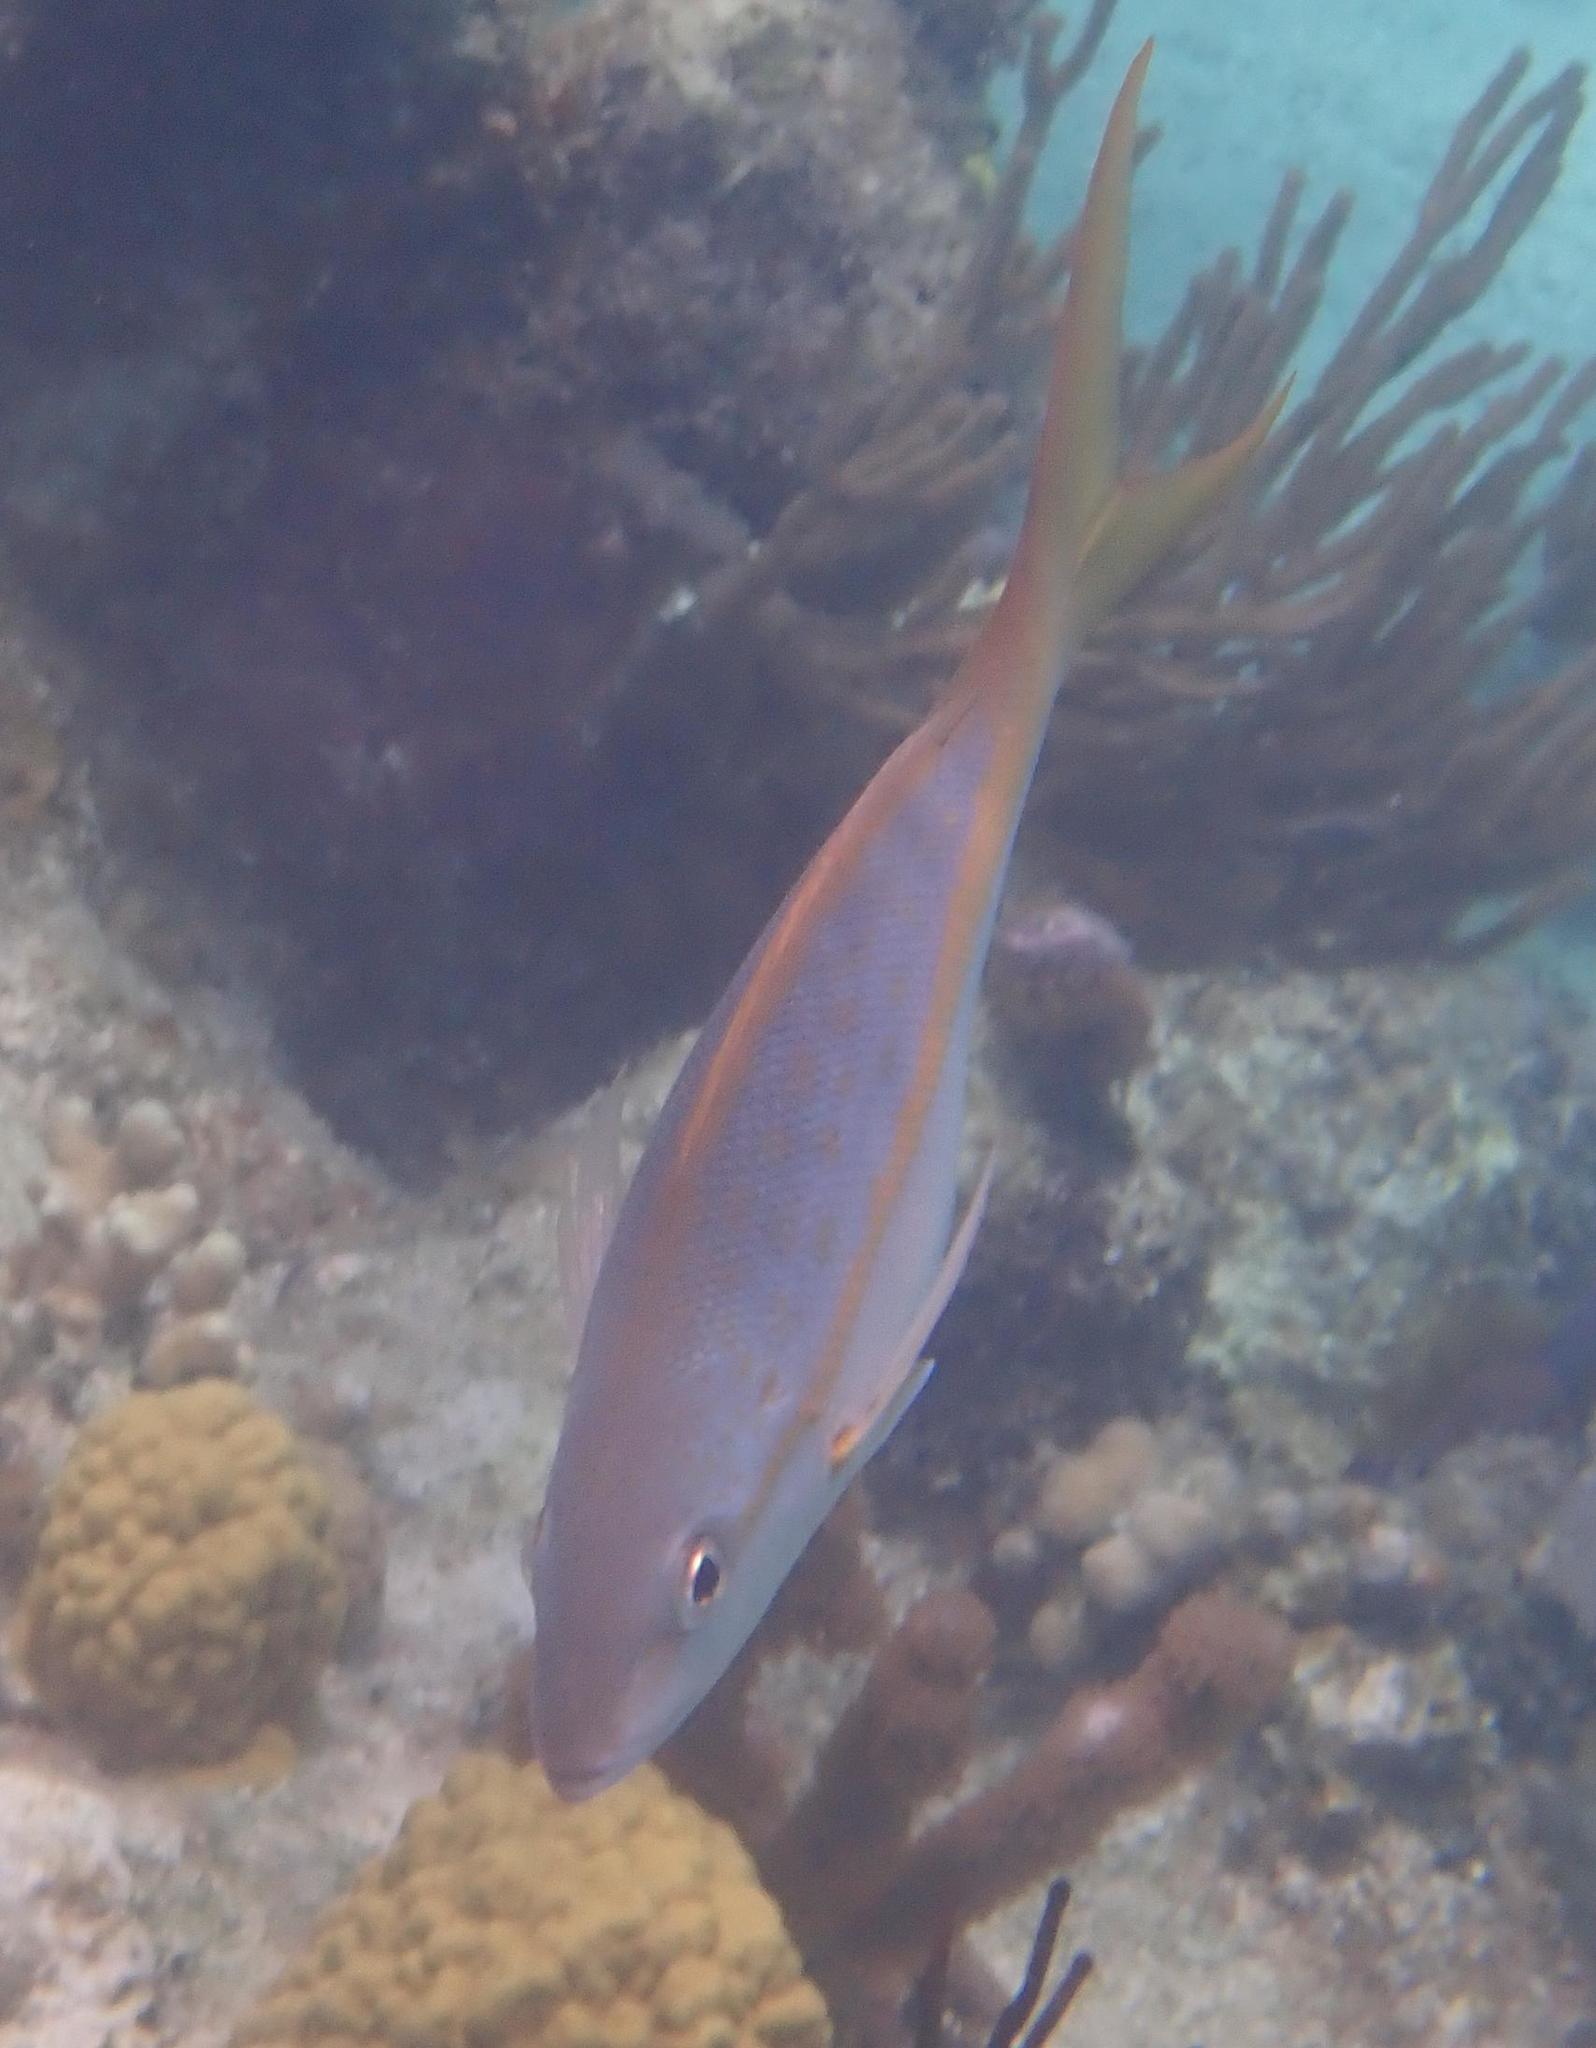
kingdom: Animalia
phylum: Chordata
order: Perciformes
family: Lutjanidae
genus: Ocyurus
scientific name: Ocyurus chrysurus
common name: Yellowtail snapper
